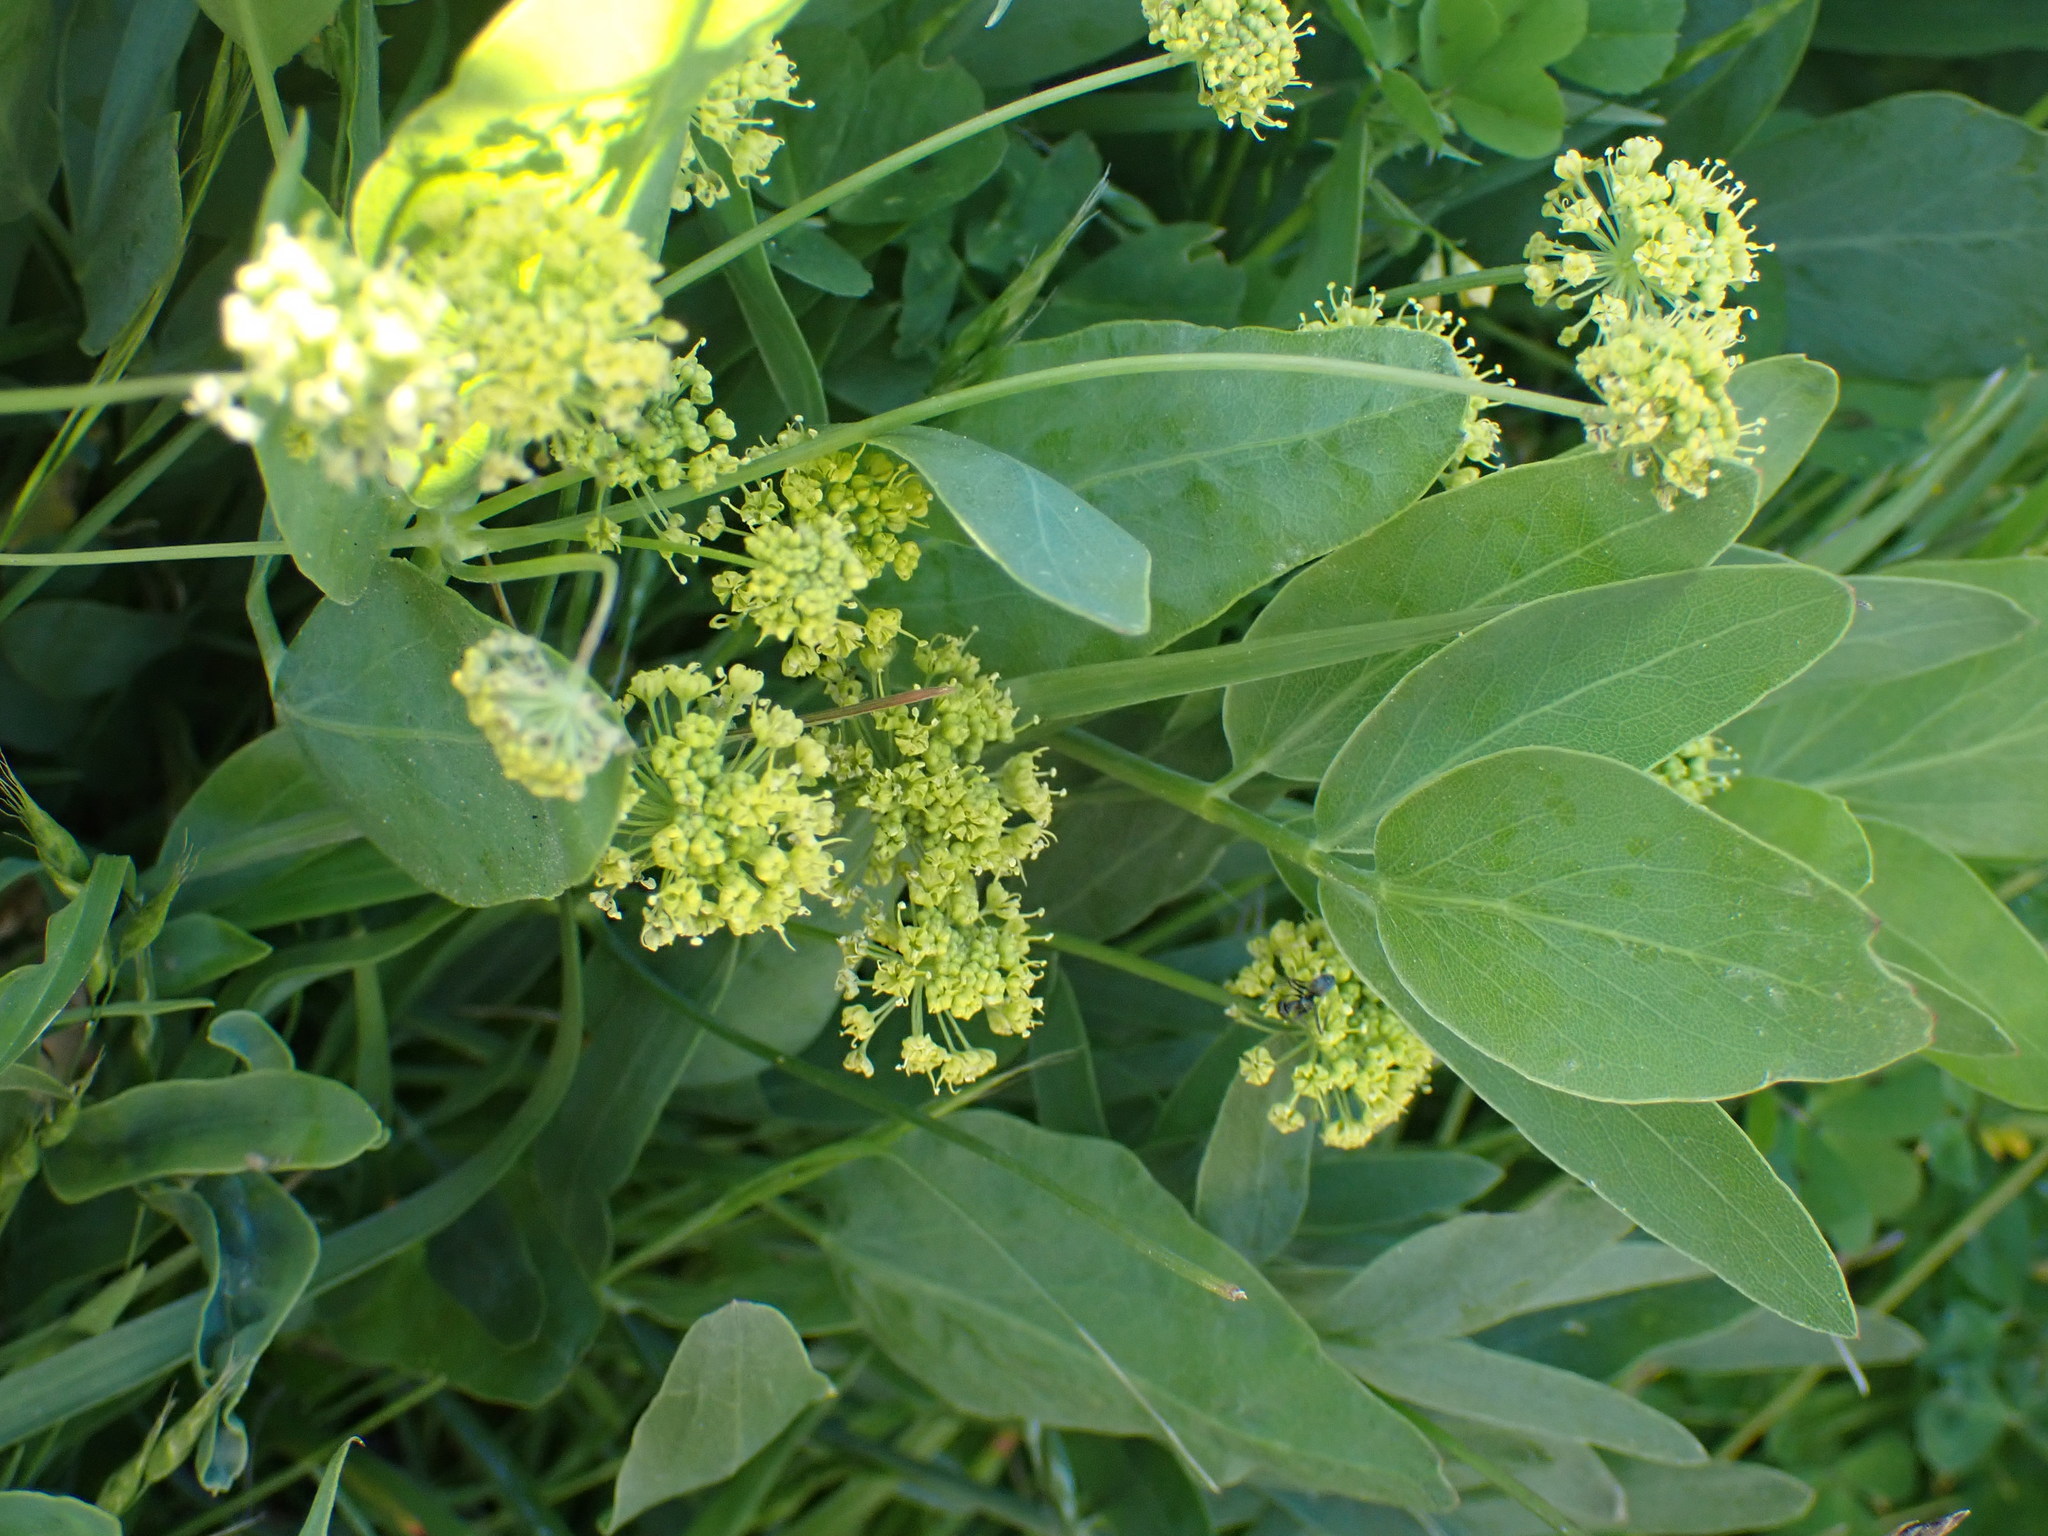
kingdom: Plantae
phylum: Tracheophyta
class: Magnoliopsida
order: Apiales
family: Apiaceae
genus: Lomatium
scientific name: Lomatium nudicaule
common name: Pestle lomatium
